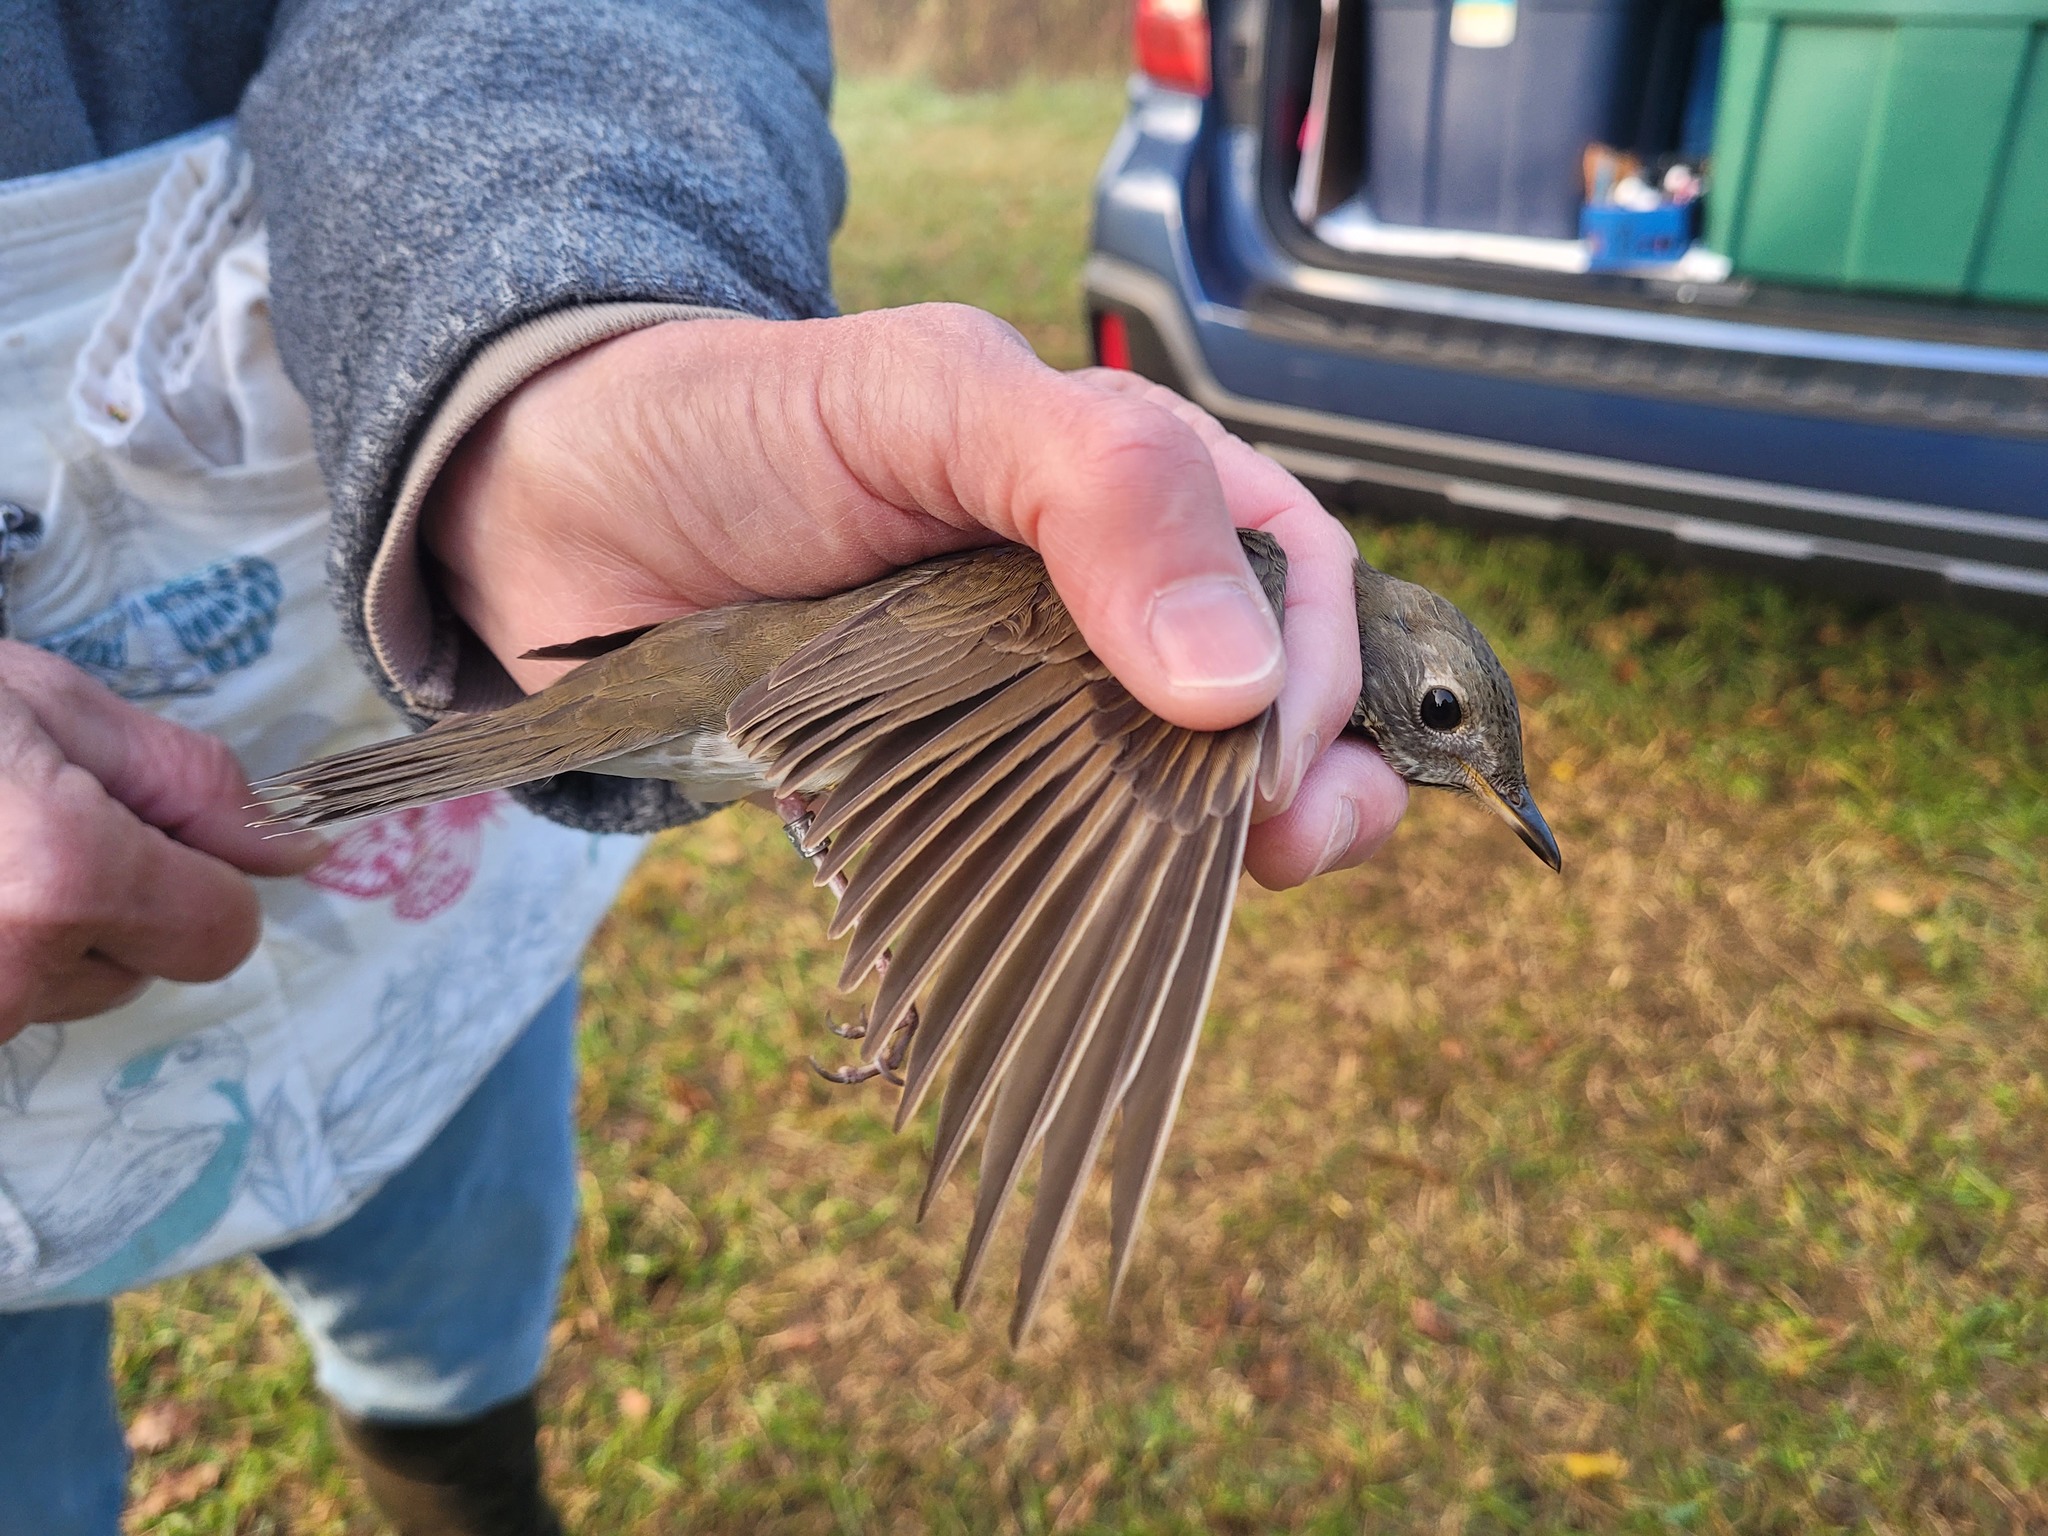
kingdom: Animalia
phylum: Chordata
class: Aves
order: Passeriformes
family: Turdidae
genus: Catharus
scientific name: Catharus minimus
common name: Grey-cheeked thrush
